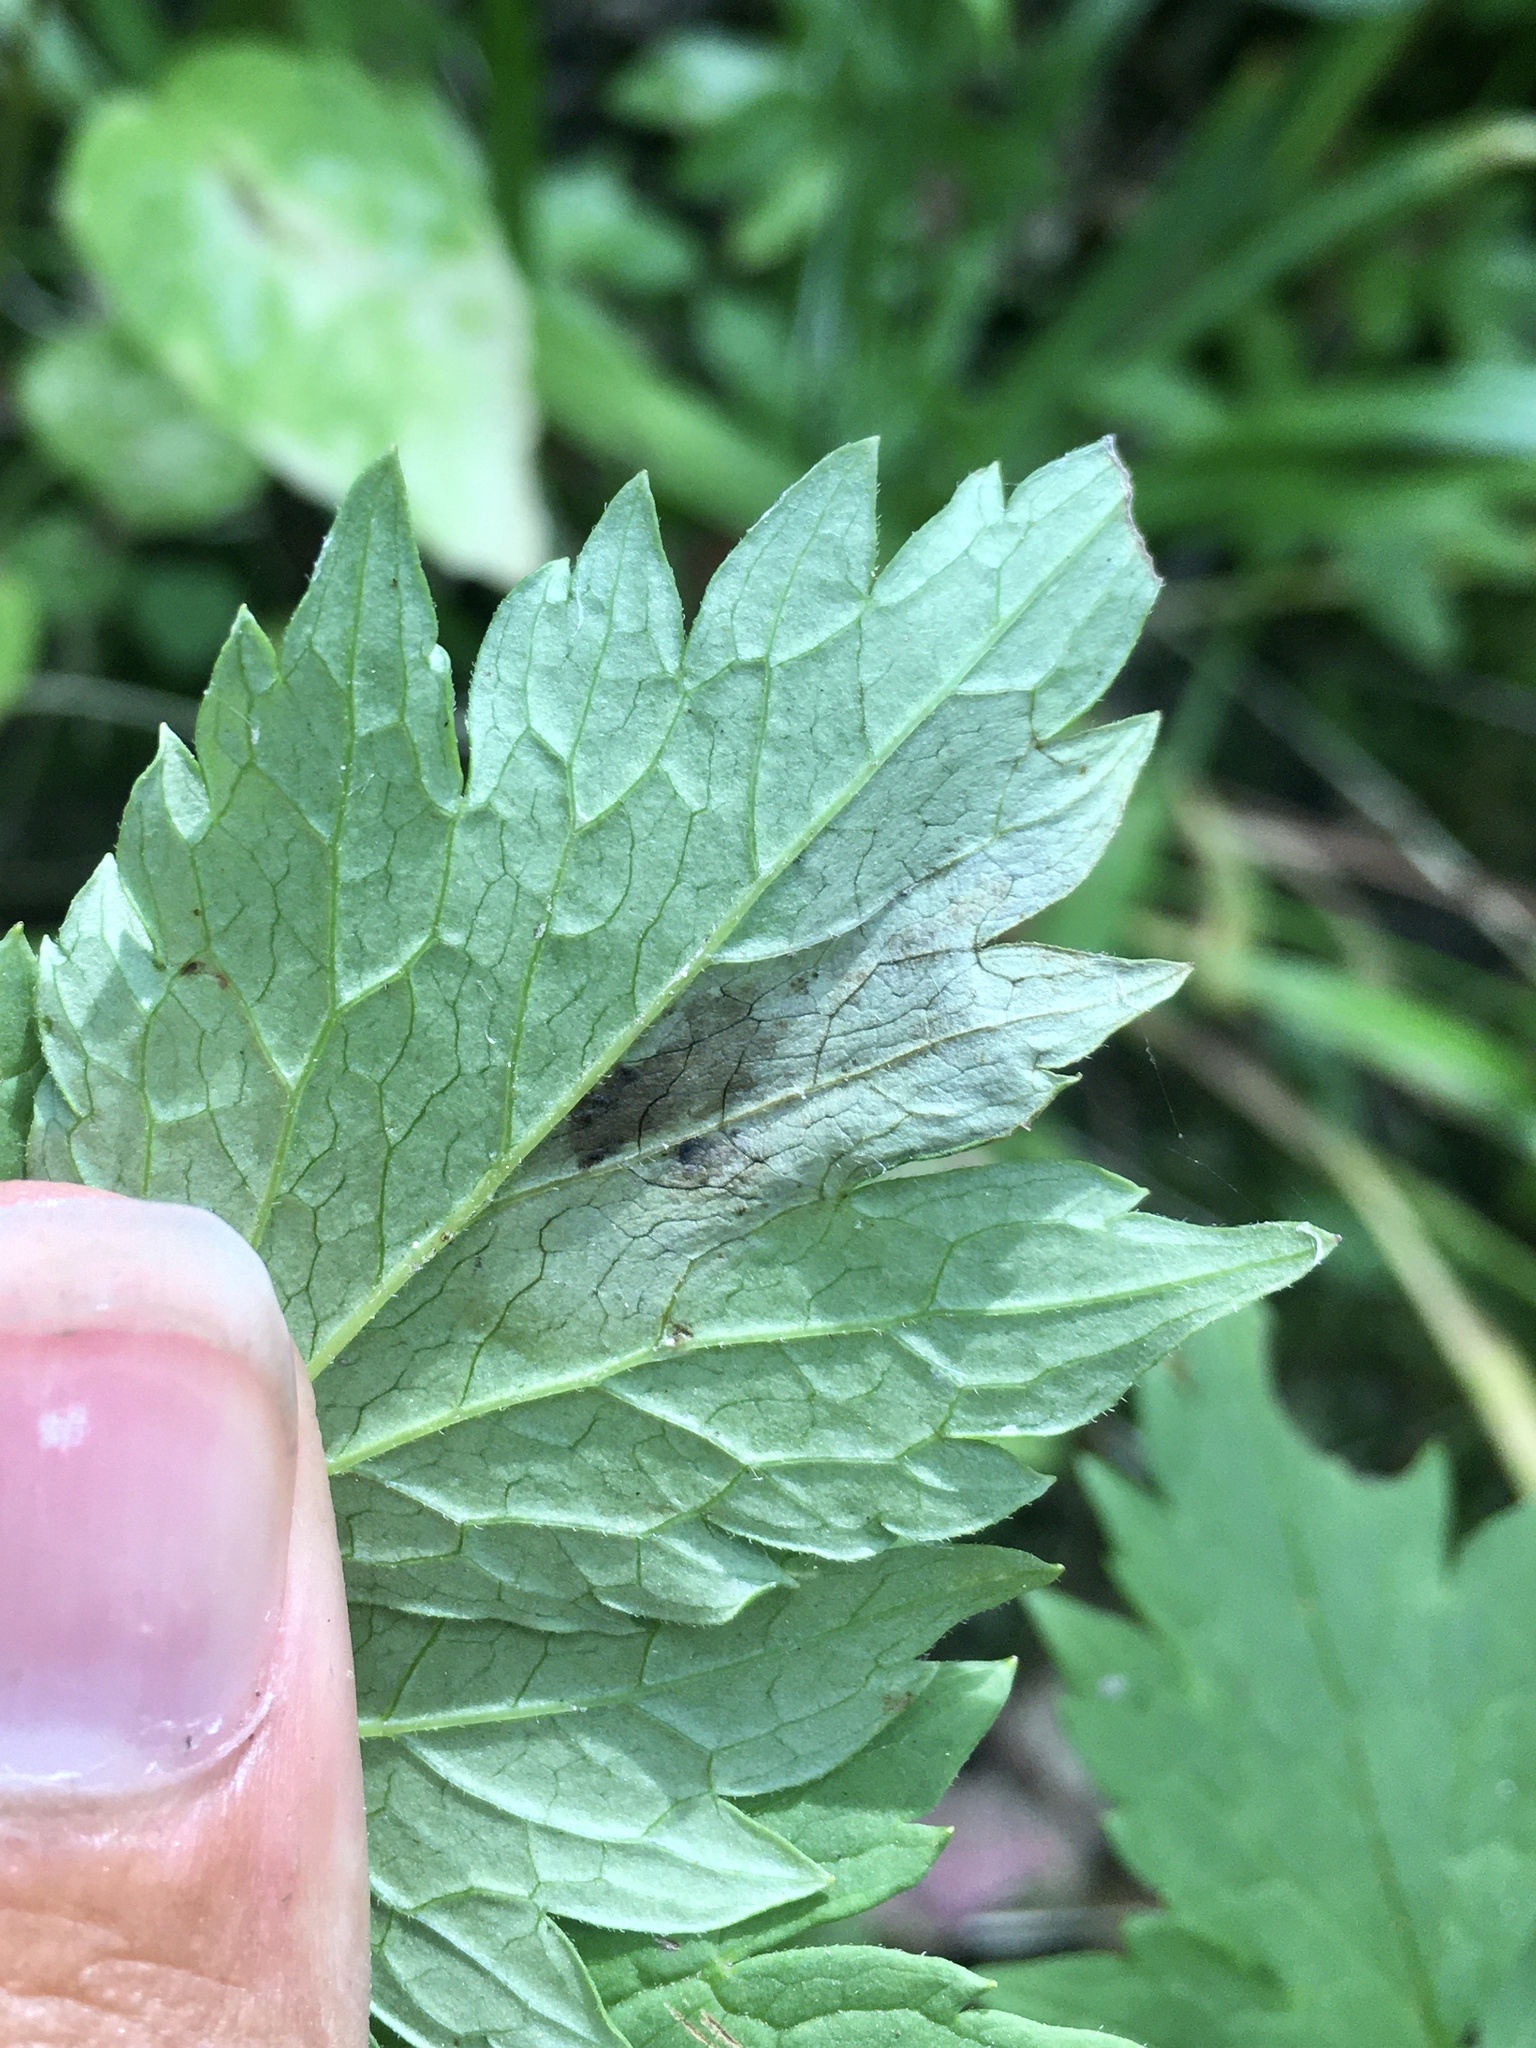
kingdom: Animalia
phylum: Arthropoda
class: Insecta
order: Diptera
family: Agromyzidae
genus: Phytomyza
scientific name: Phytomyza
